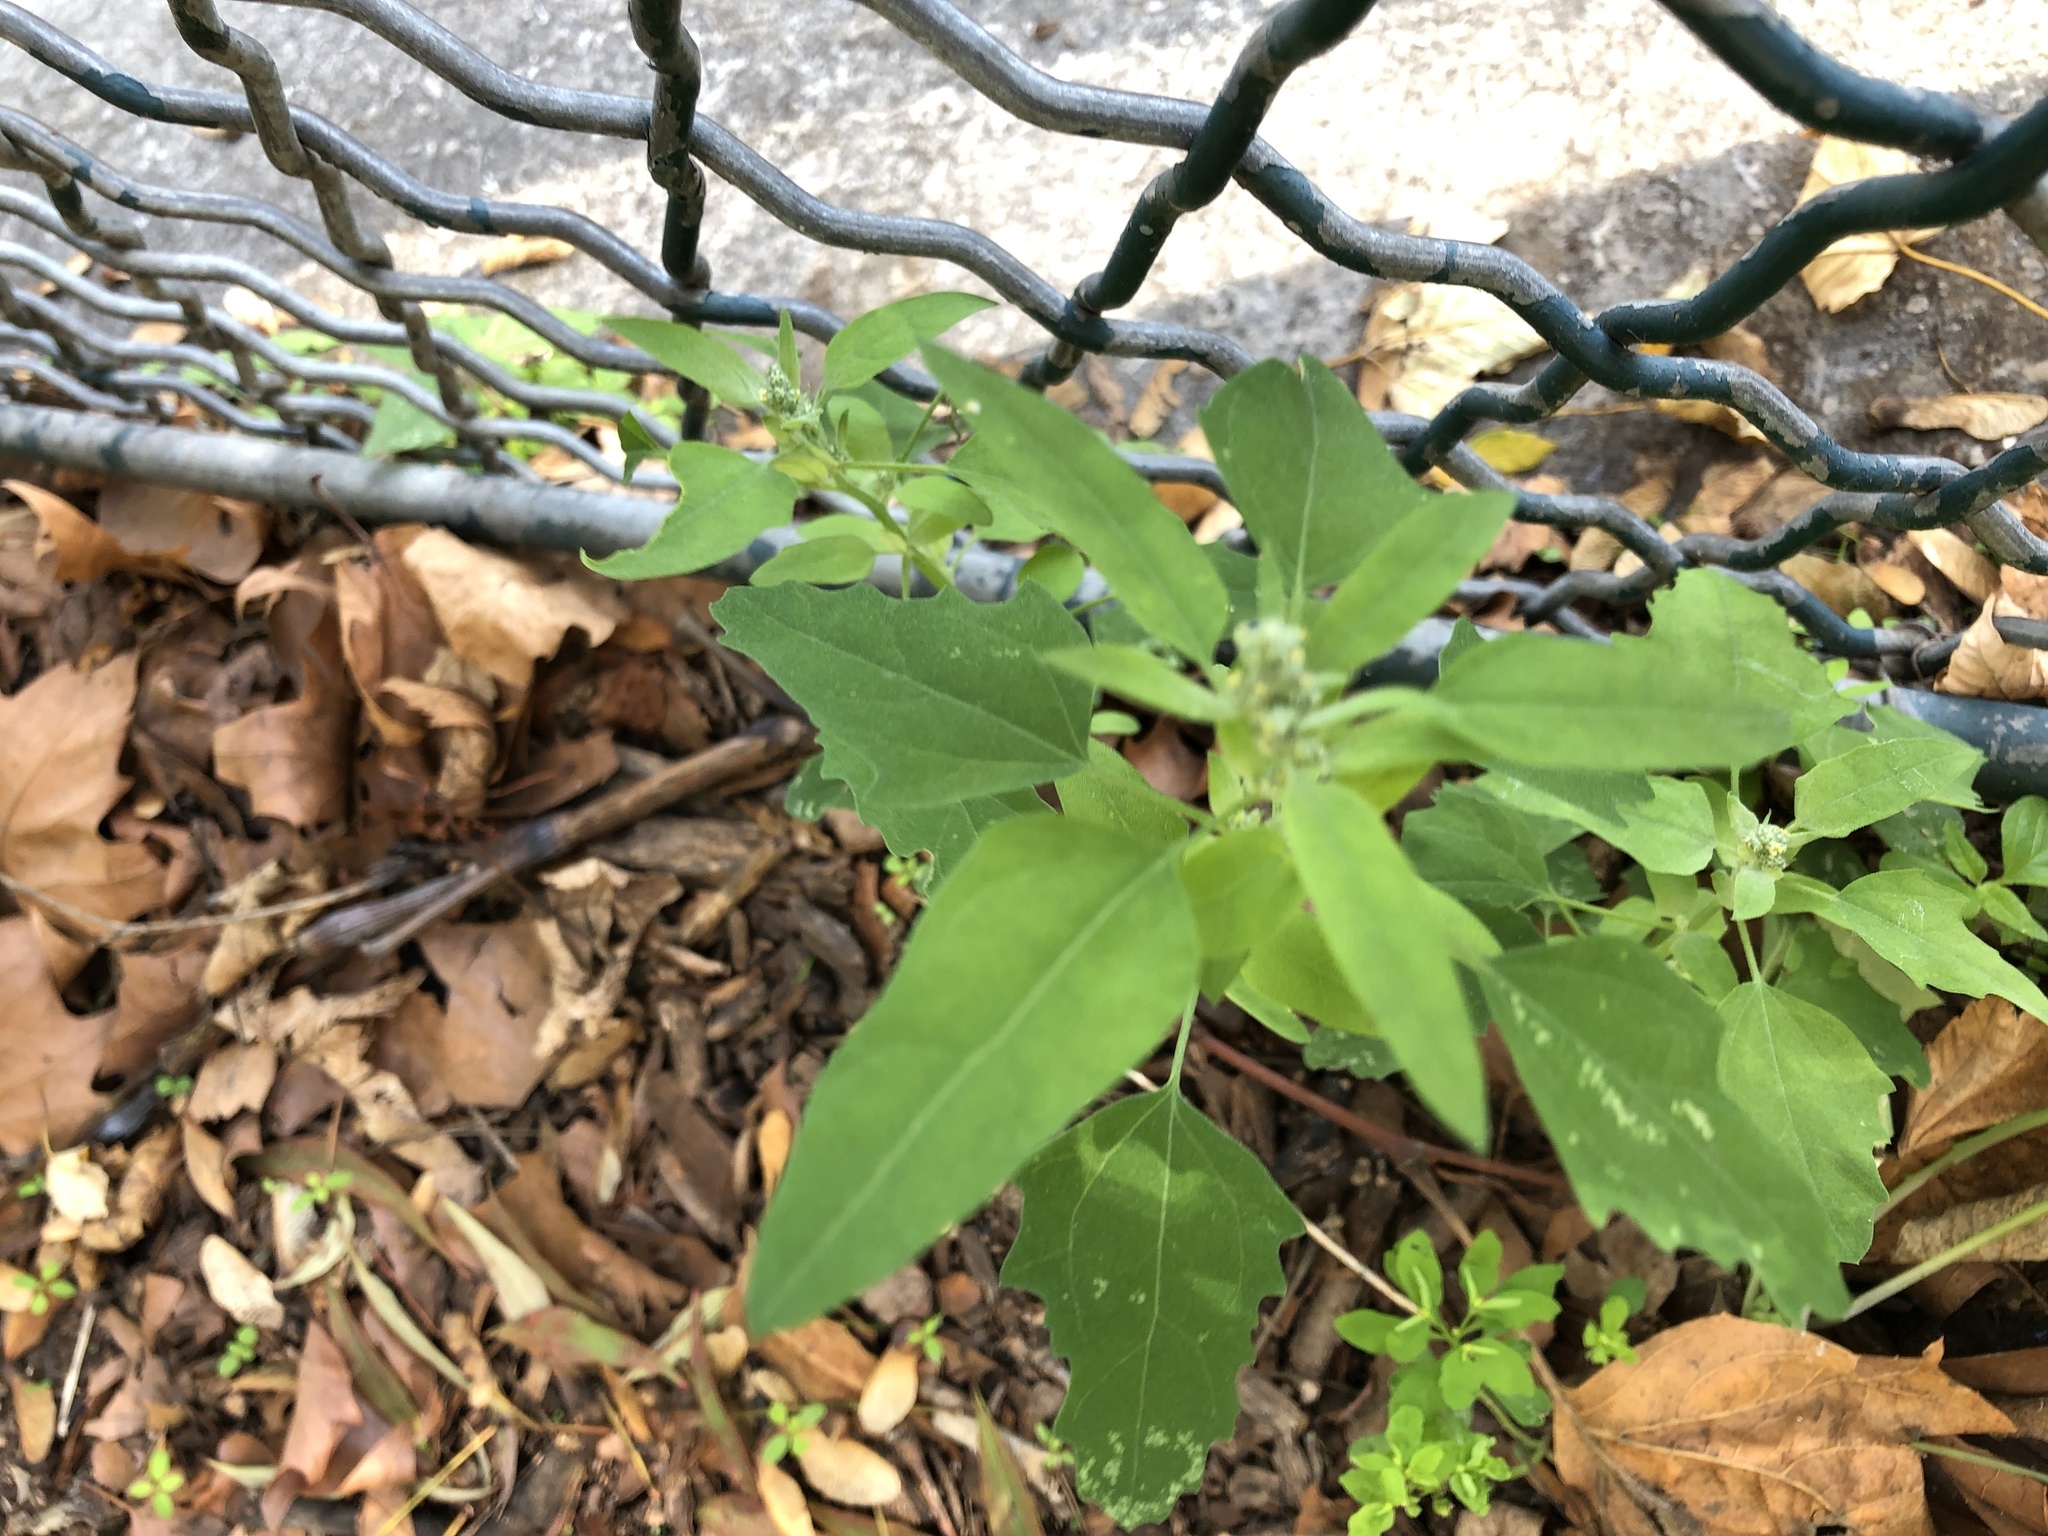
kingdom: Plantae
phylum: Tracheophyta
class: Magnoliopsida
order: Caryophyllales
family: Amaranthaceae
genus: Chenopodium
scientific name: Chenopodium album
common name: Fat-hen
